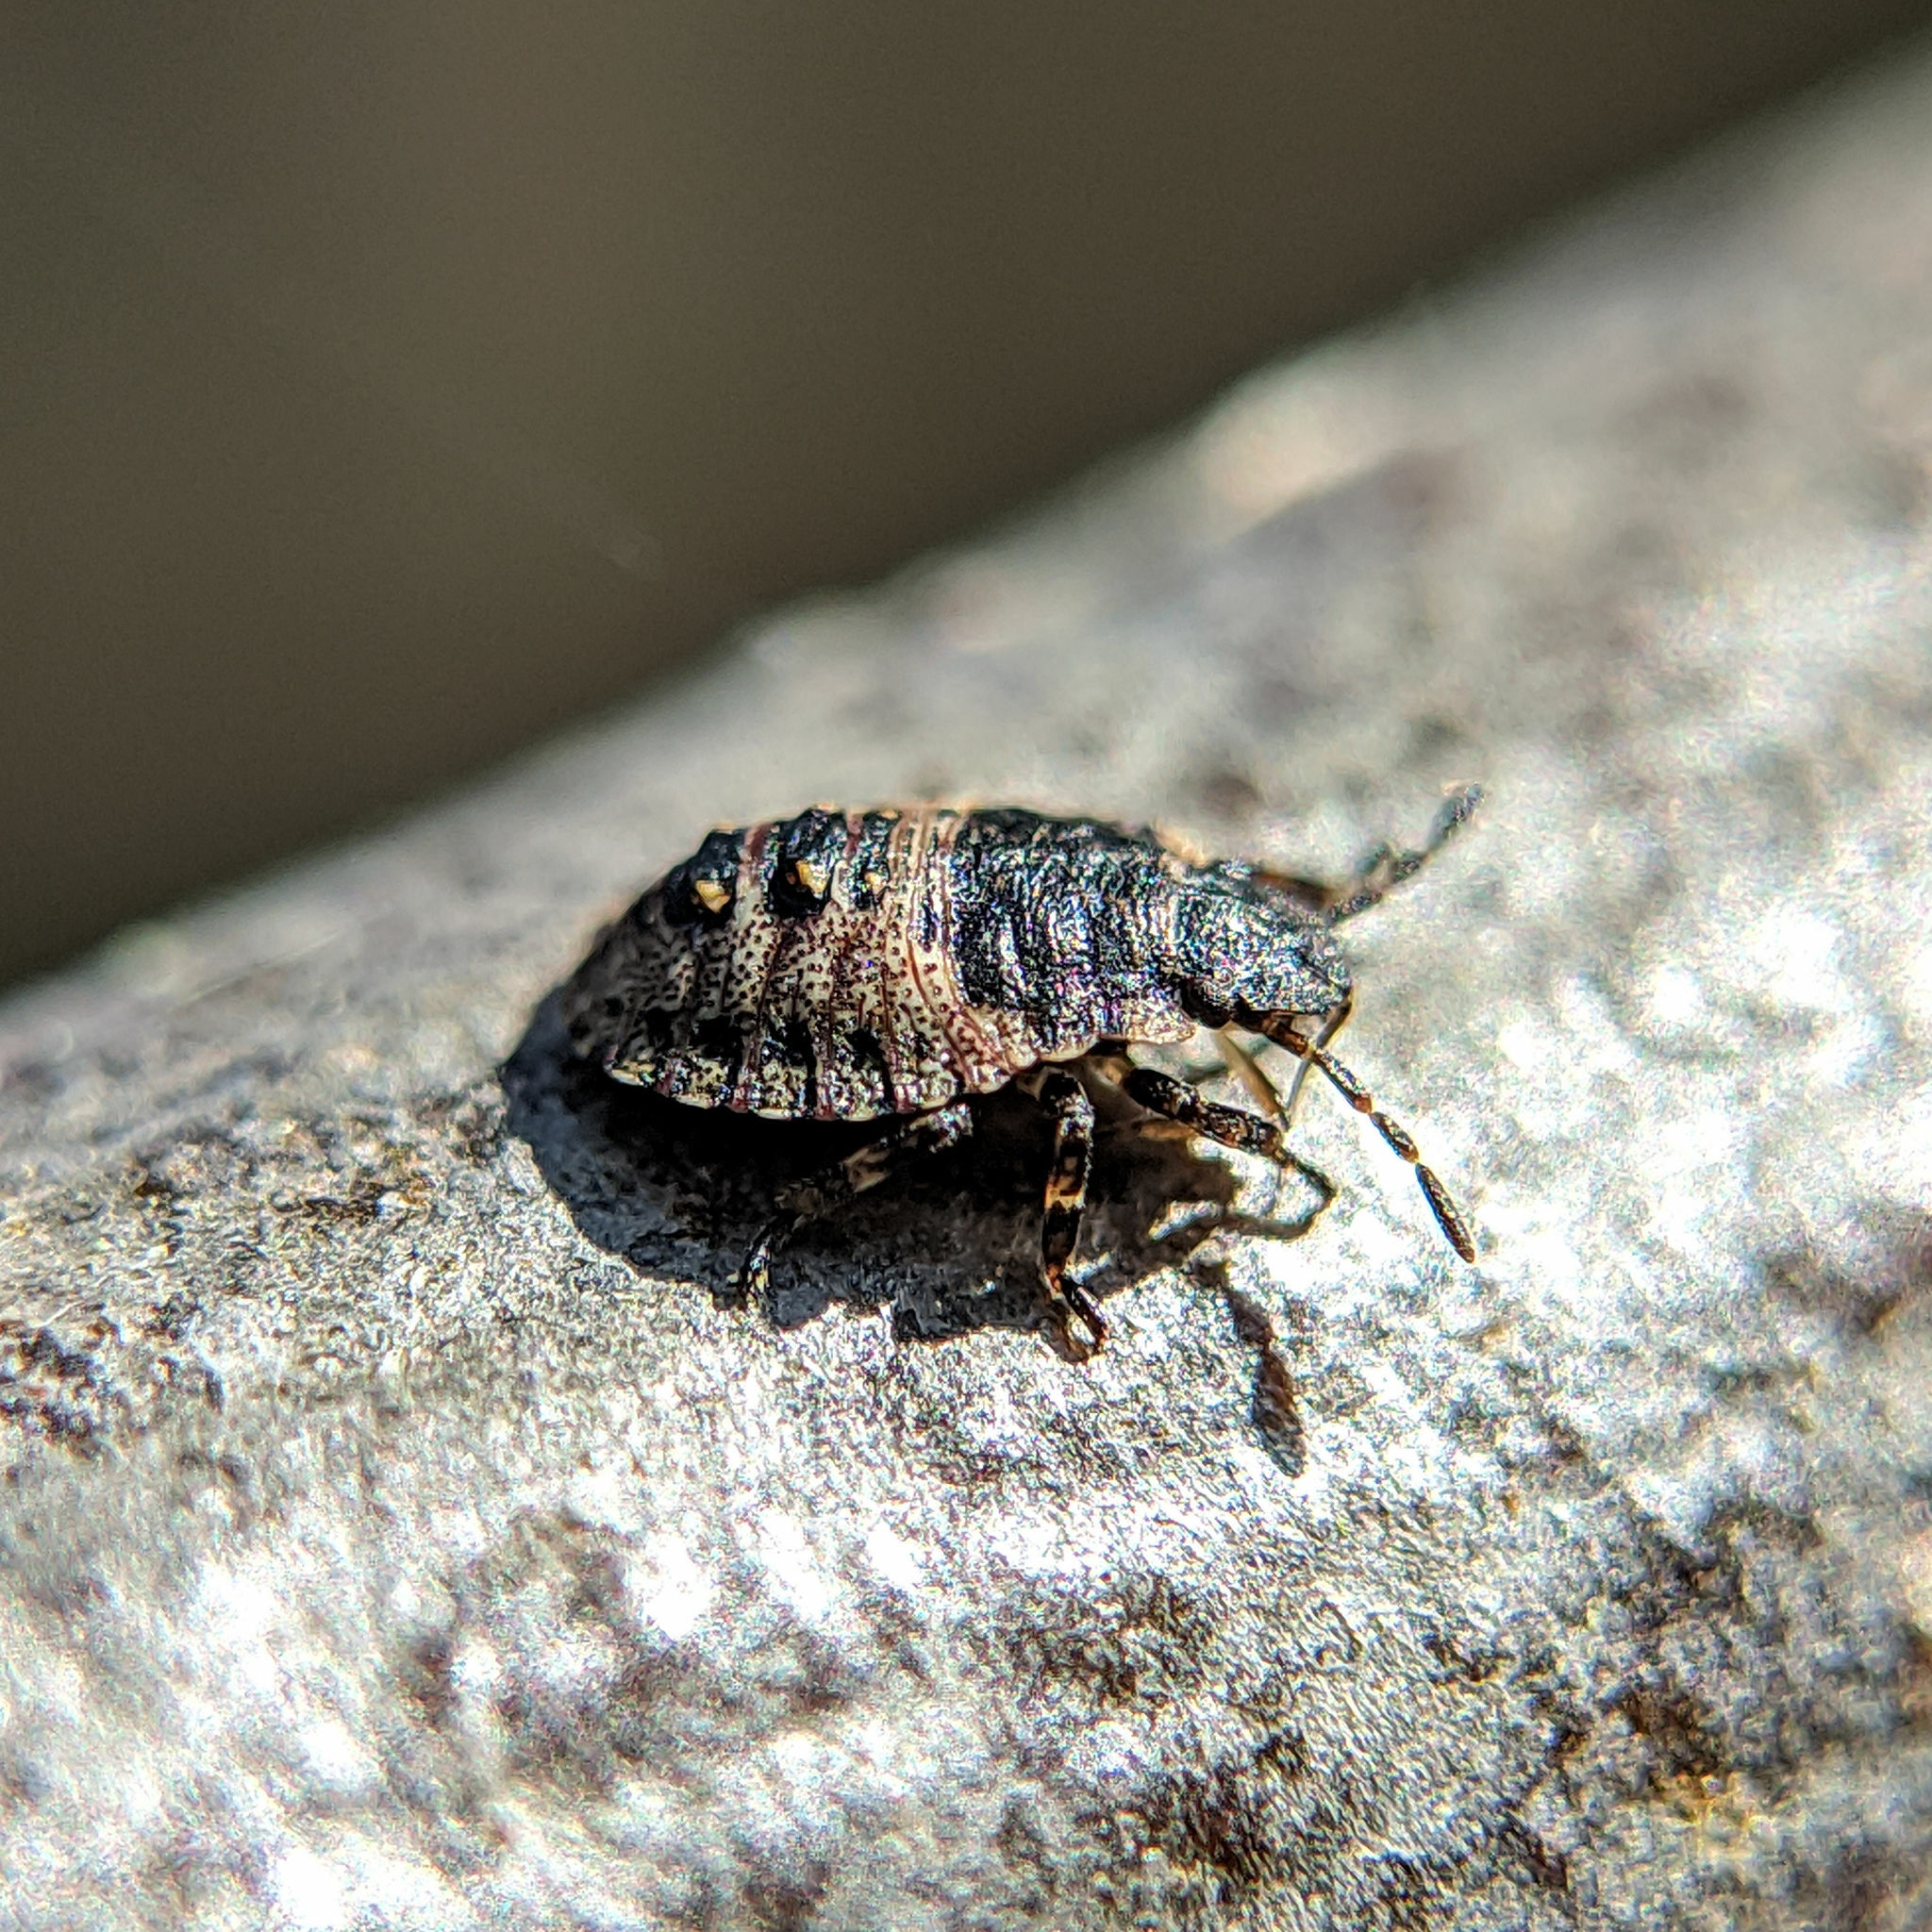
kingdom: Animalia
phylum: Arthropoda
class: Insecta
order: Hemiptera
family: Pentatomidae
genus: Pentatoma
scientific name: Pentatoma rufipes
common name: Forest bug
